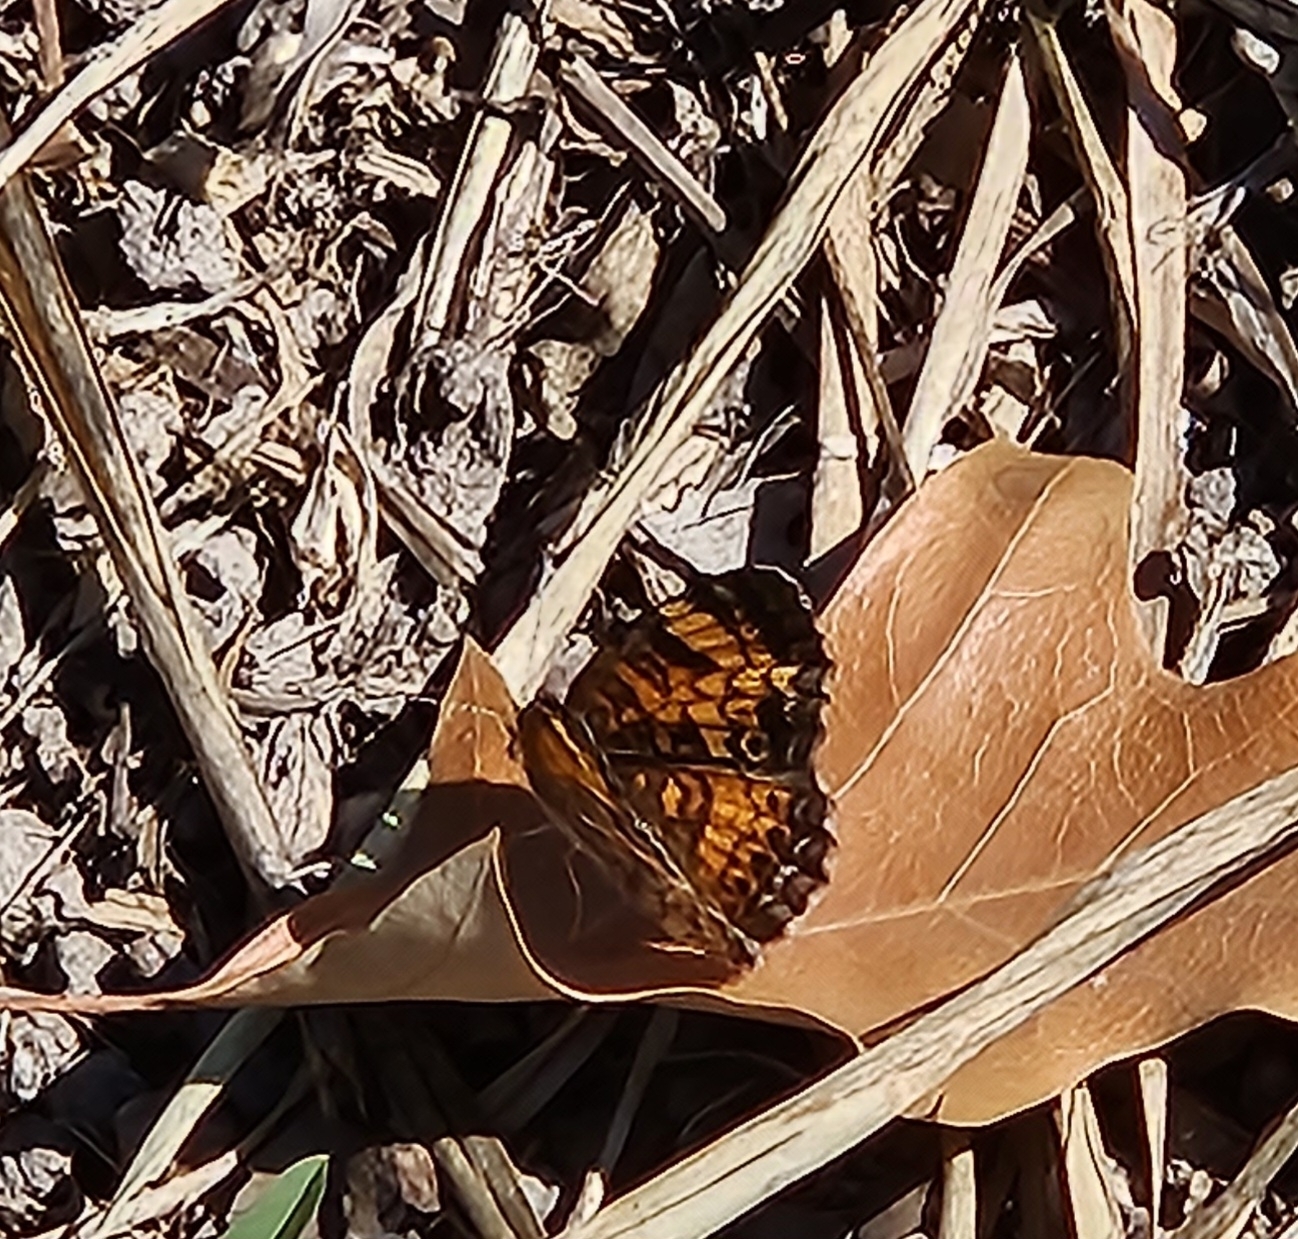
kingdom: Animalia
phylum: Arthropoda
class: Insecta
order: Lepidoptera
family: Nymphalidae
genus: Phyciodes
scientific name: Phyciodes tharos
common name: Pearl crescent
